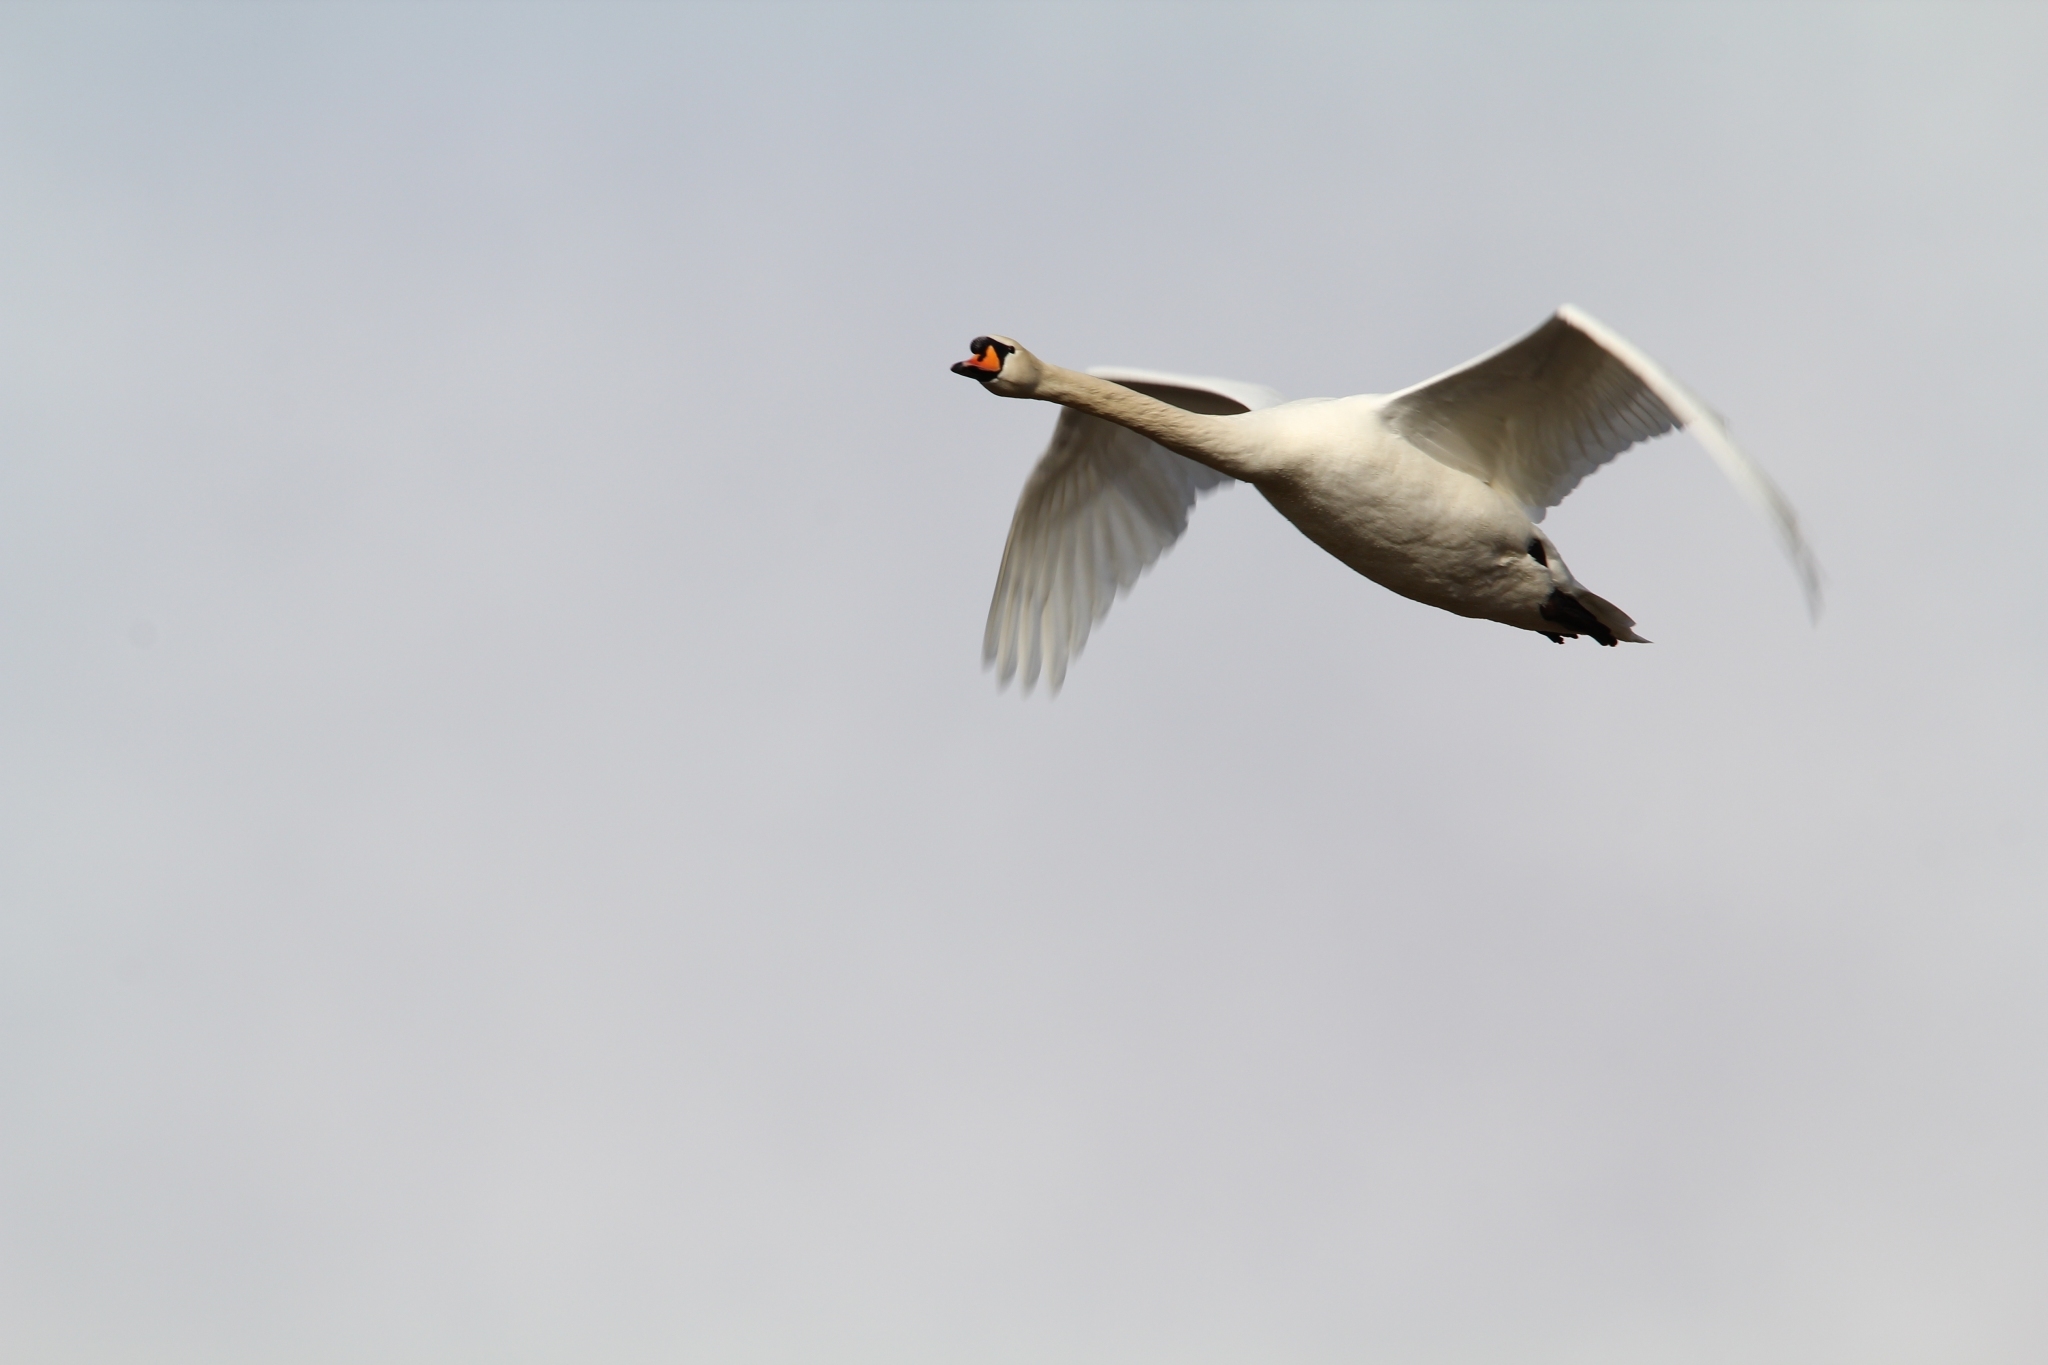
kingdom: Animalia
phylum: Chordata
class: Aves
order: Anseriformes
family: Anatidae
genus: Cygnus
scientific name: Cygnus olor
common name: Mute swan
